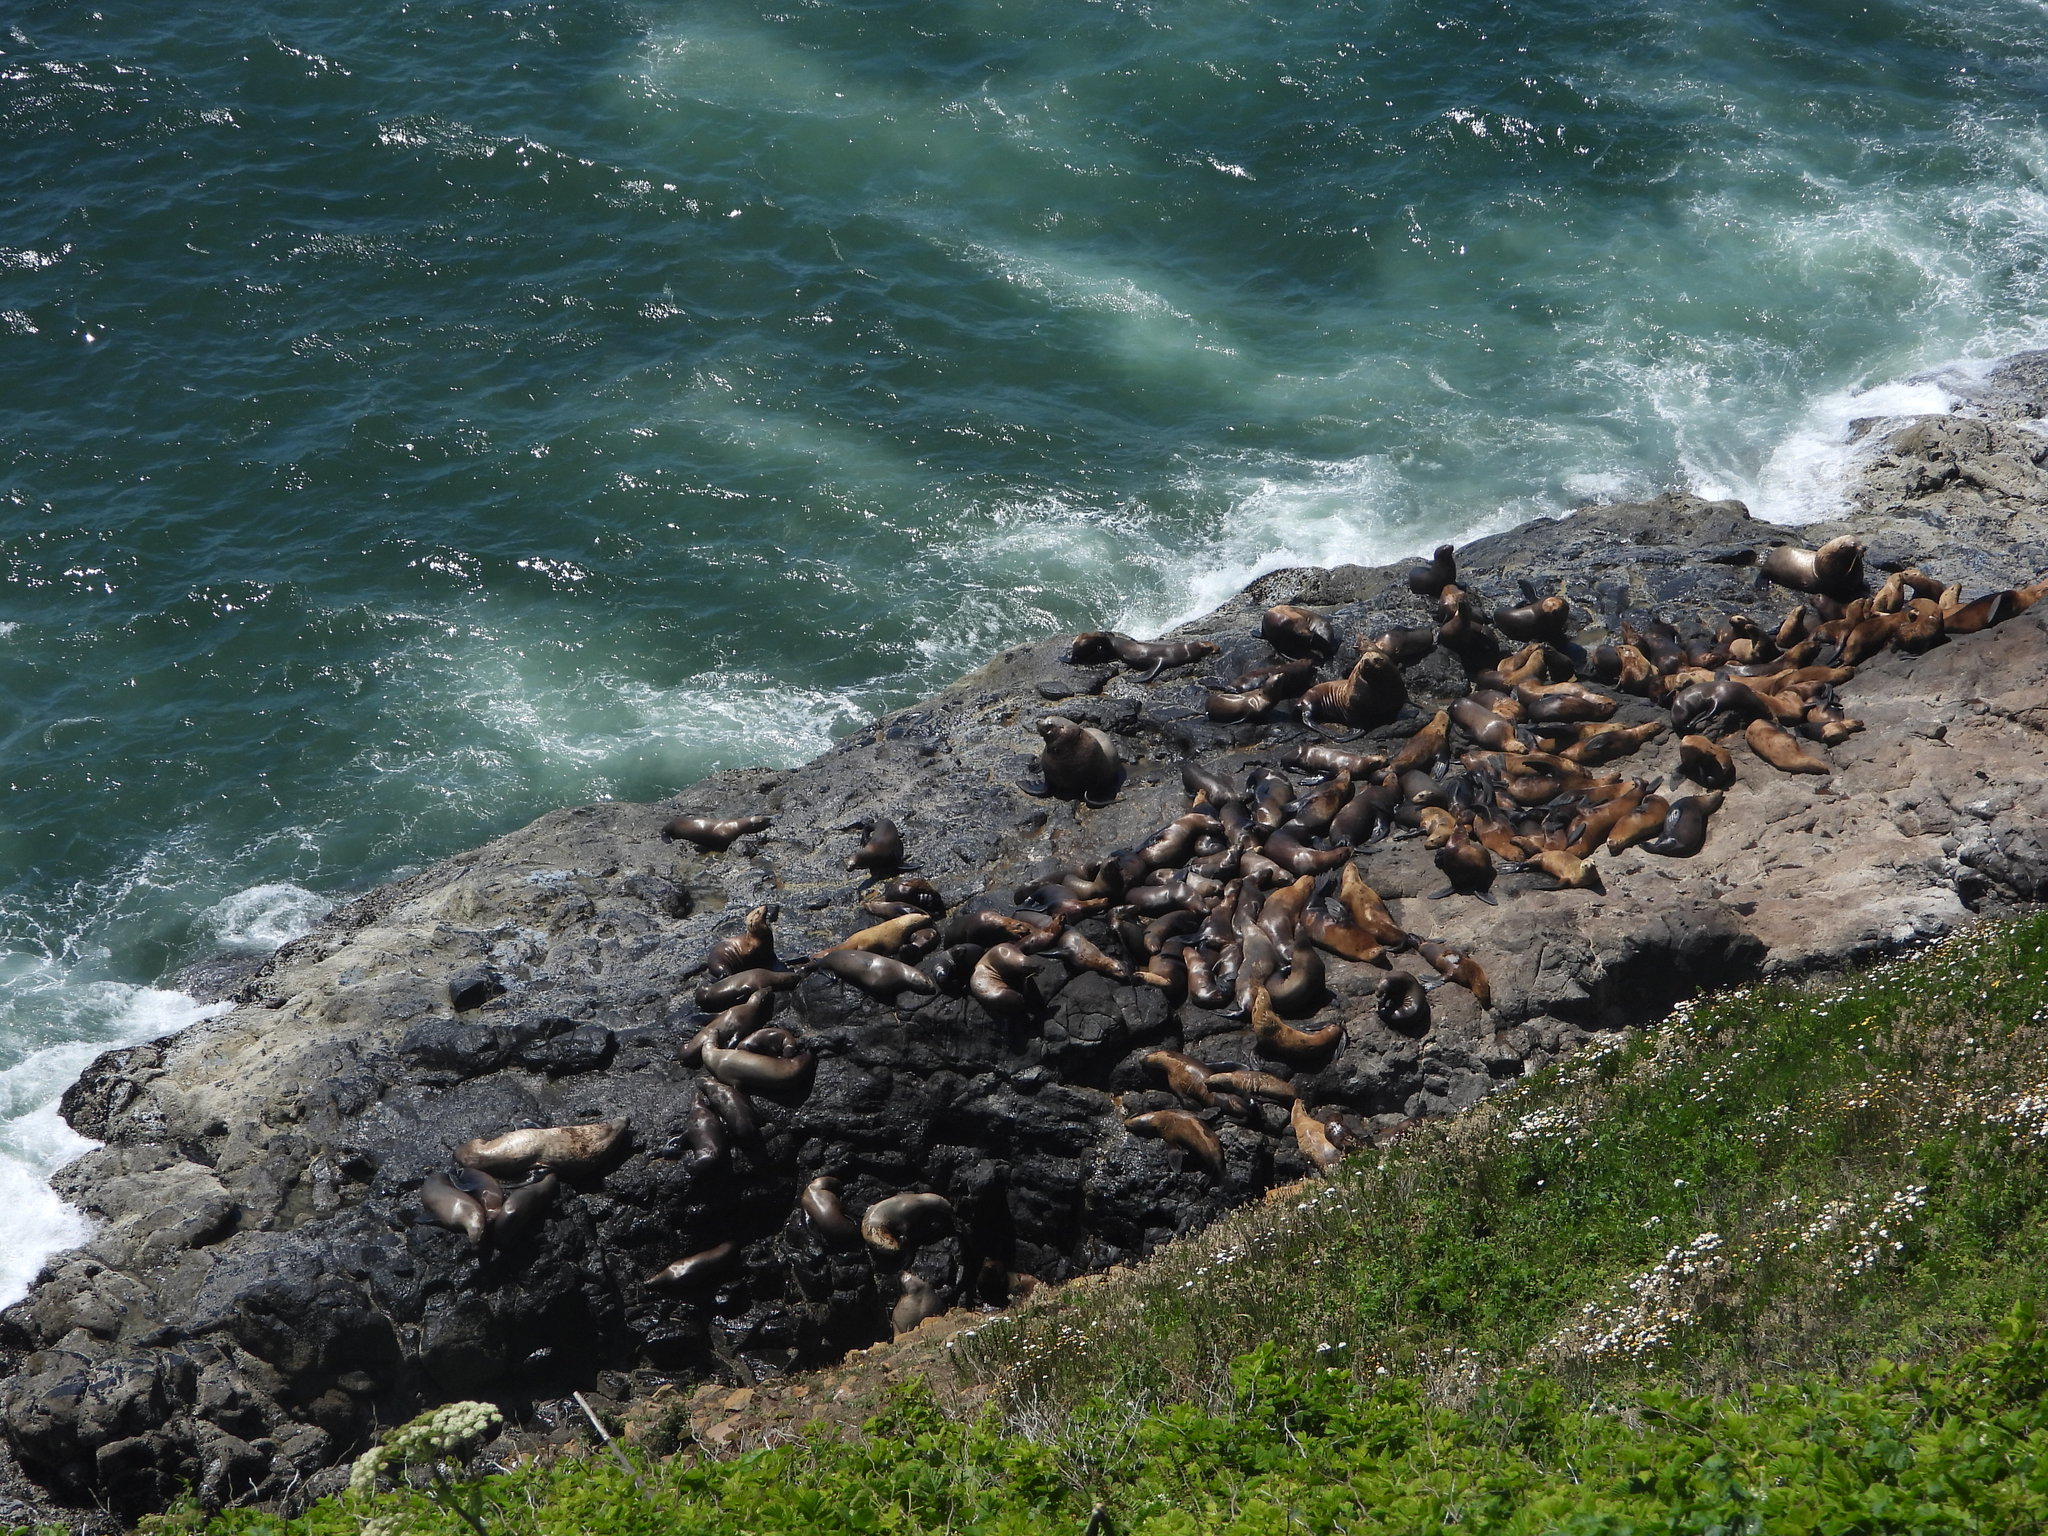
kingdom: Animalia
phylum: Chordata
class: Mammalia
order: Carnivora
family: Otariidae
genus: Eumetopias
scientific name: Eumetopias jubatus
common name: Steller sea lion
